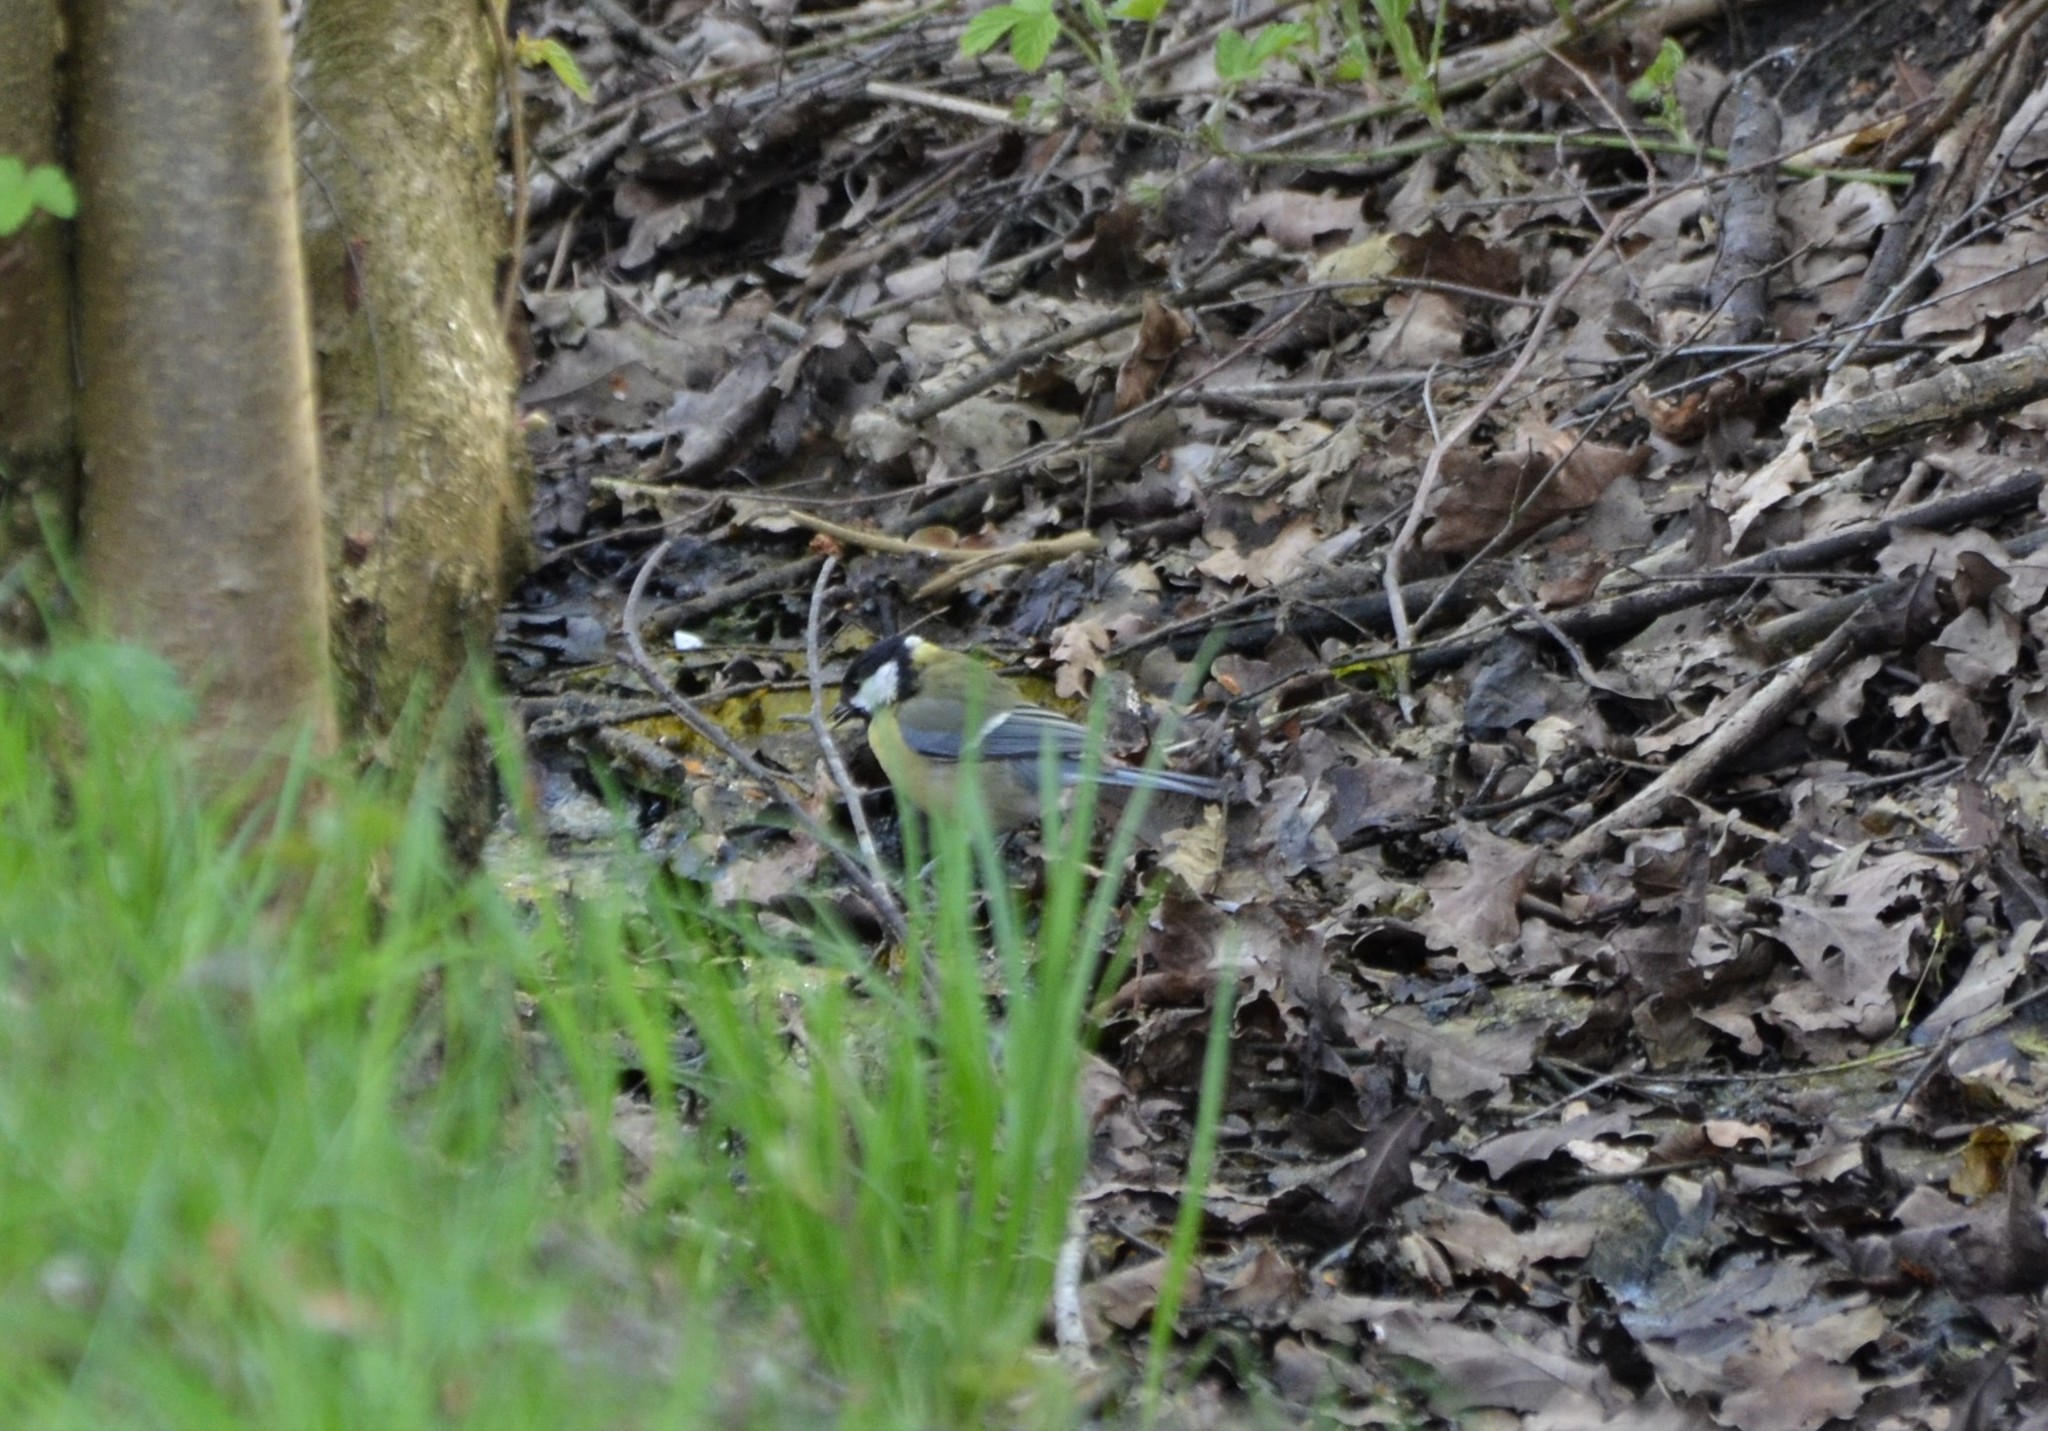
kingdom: Animalia
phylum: Chordata
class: Aves
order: Passeriformes
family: Paridae
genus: Parus
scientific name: Parus major
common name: Great tit
